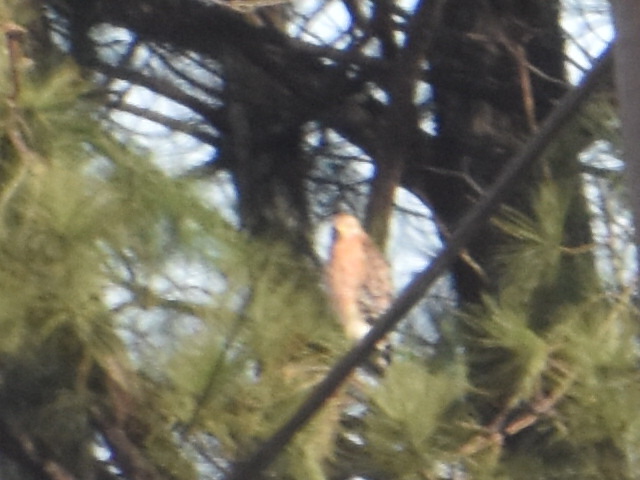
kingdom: Animalia
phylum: Chordata
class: Aves
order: Accipitriformes
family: Accipitridae
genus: Buteo
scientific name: Buteo lineatus
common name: Red-shouldered hawk
